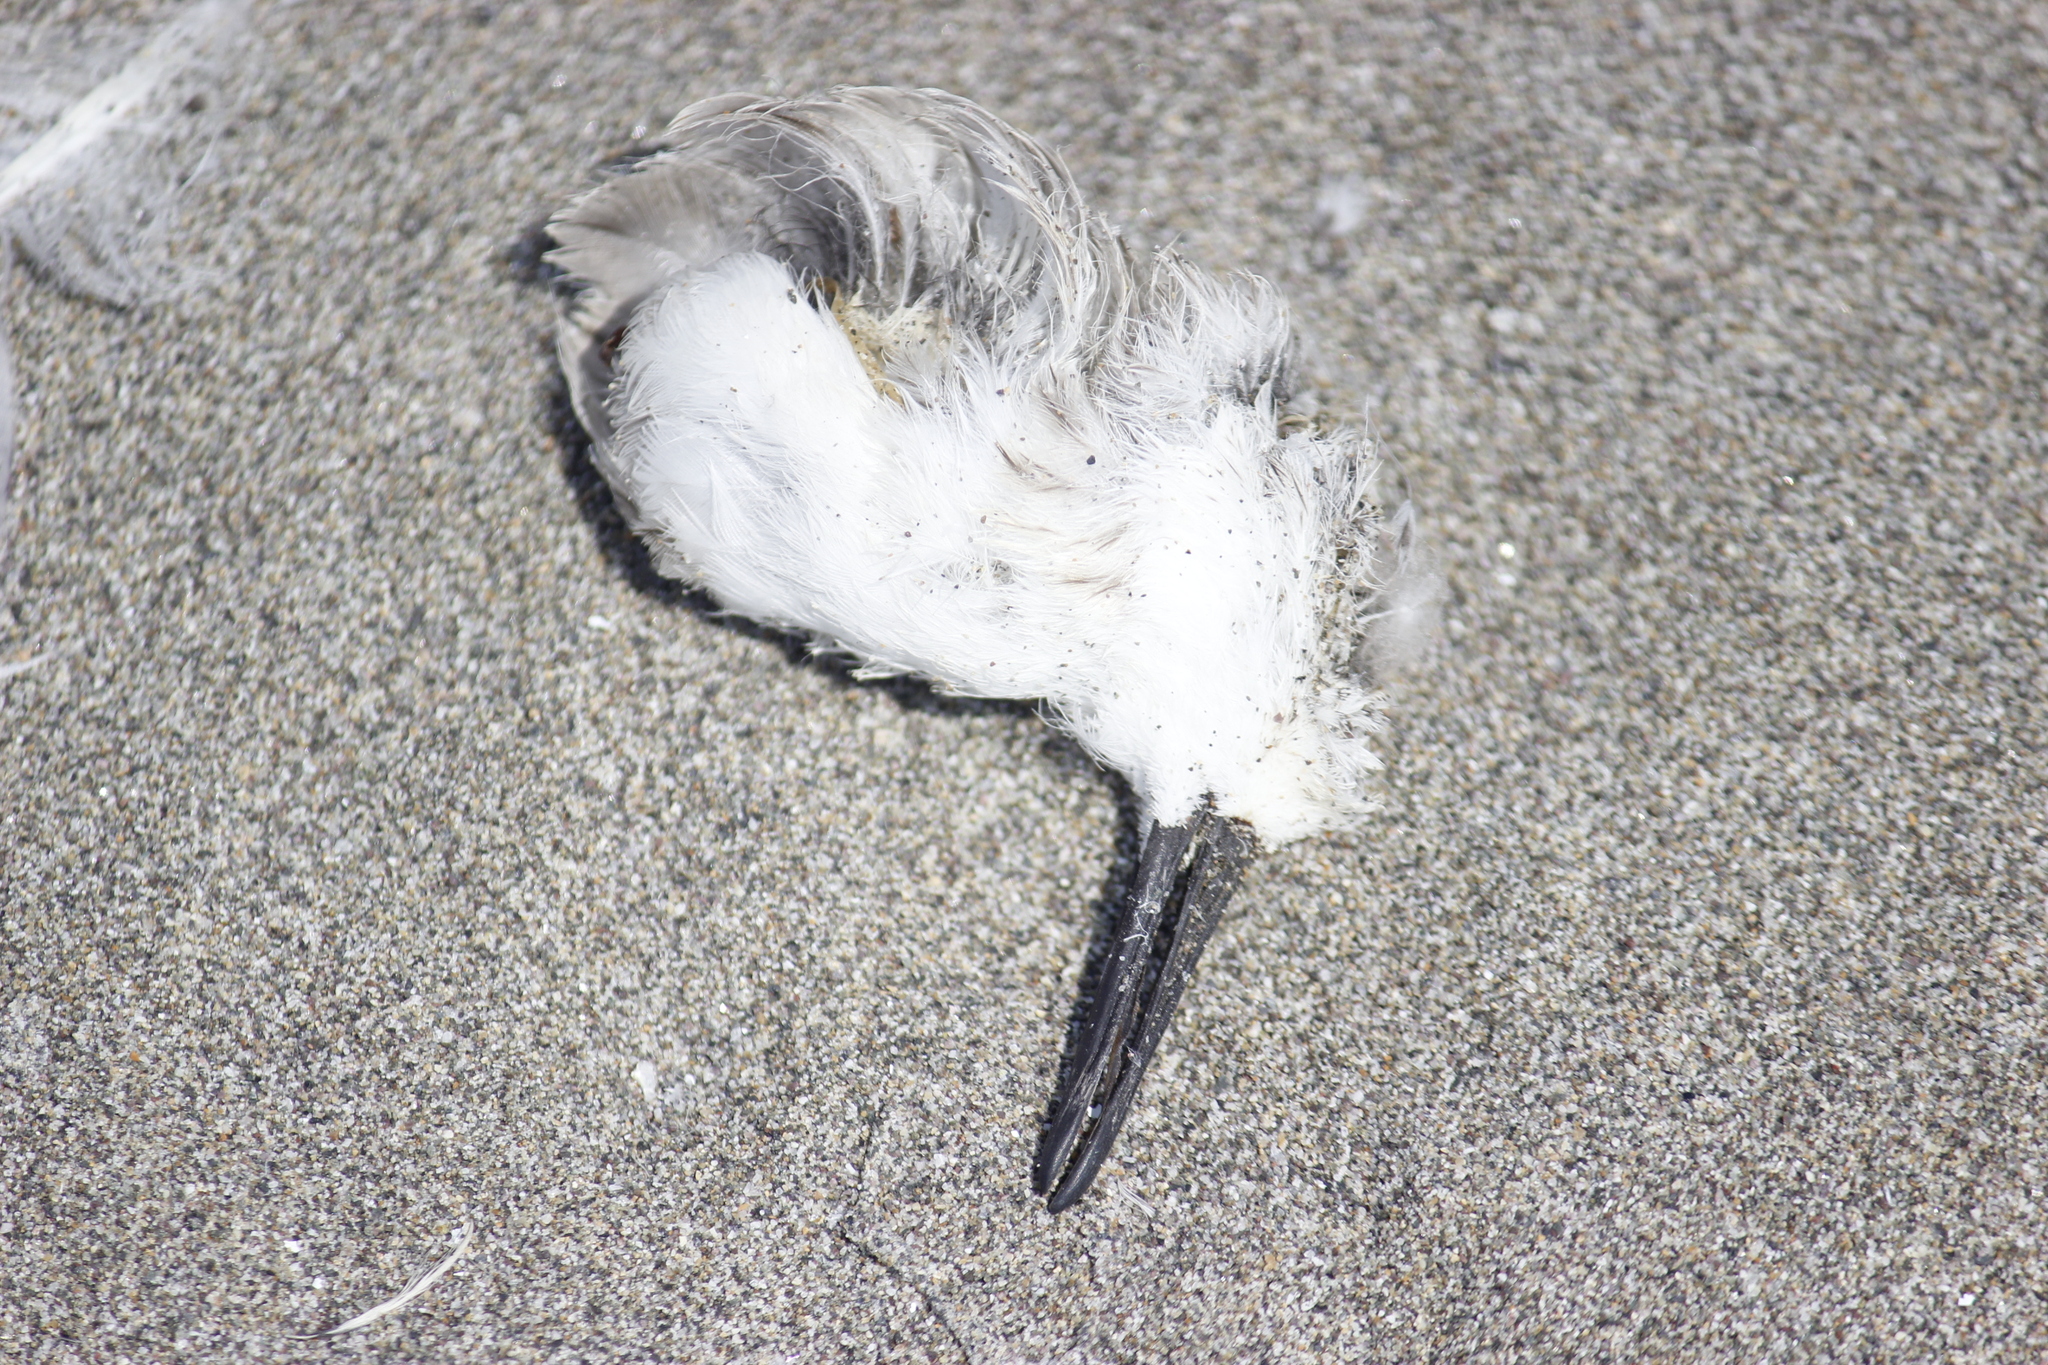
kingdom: Animalia
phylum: Chordata
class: Aves
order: Charadriiformes
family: Scolopacidae
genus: Calidris
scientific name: Calidris alba
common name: Sanderling
